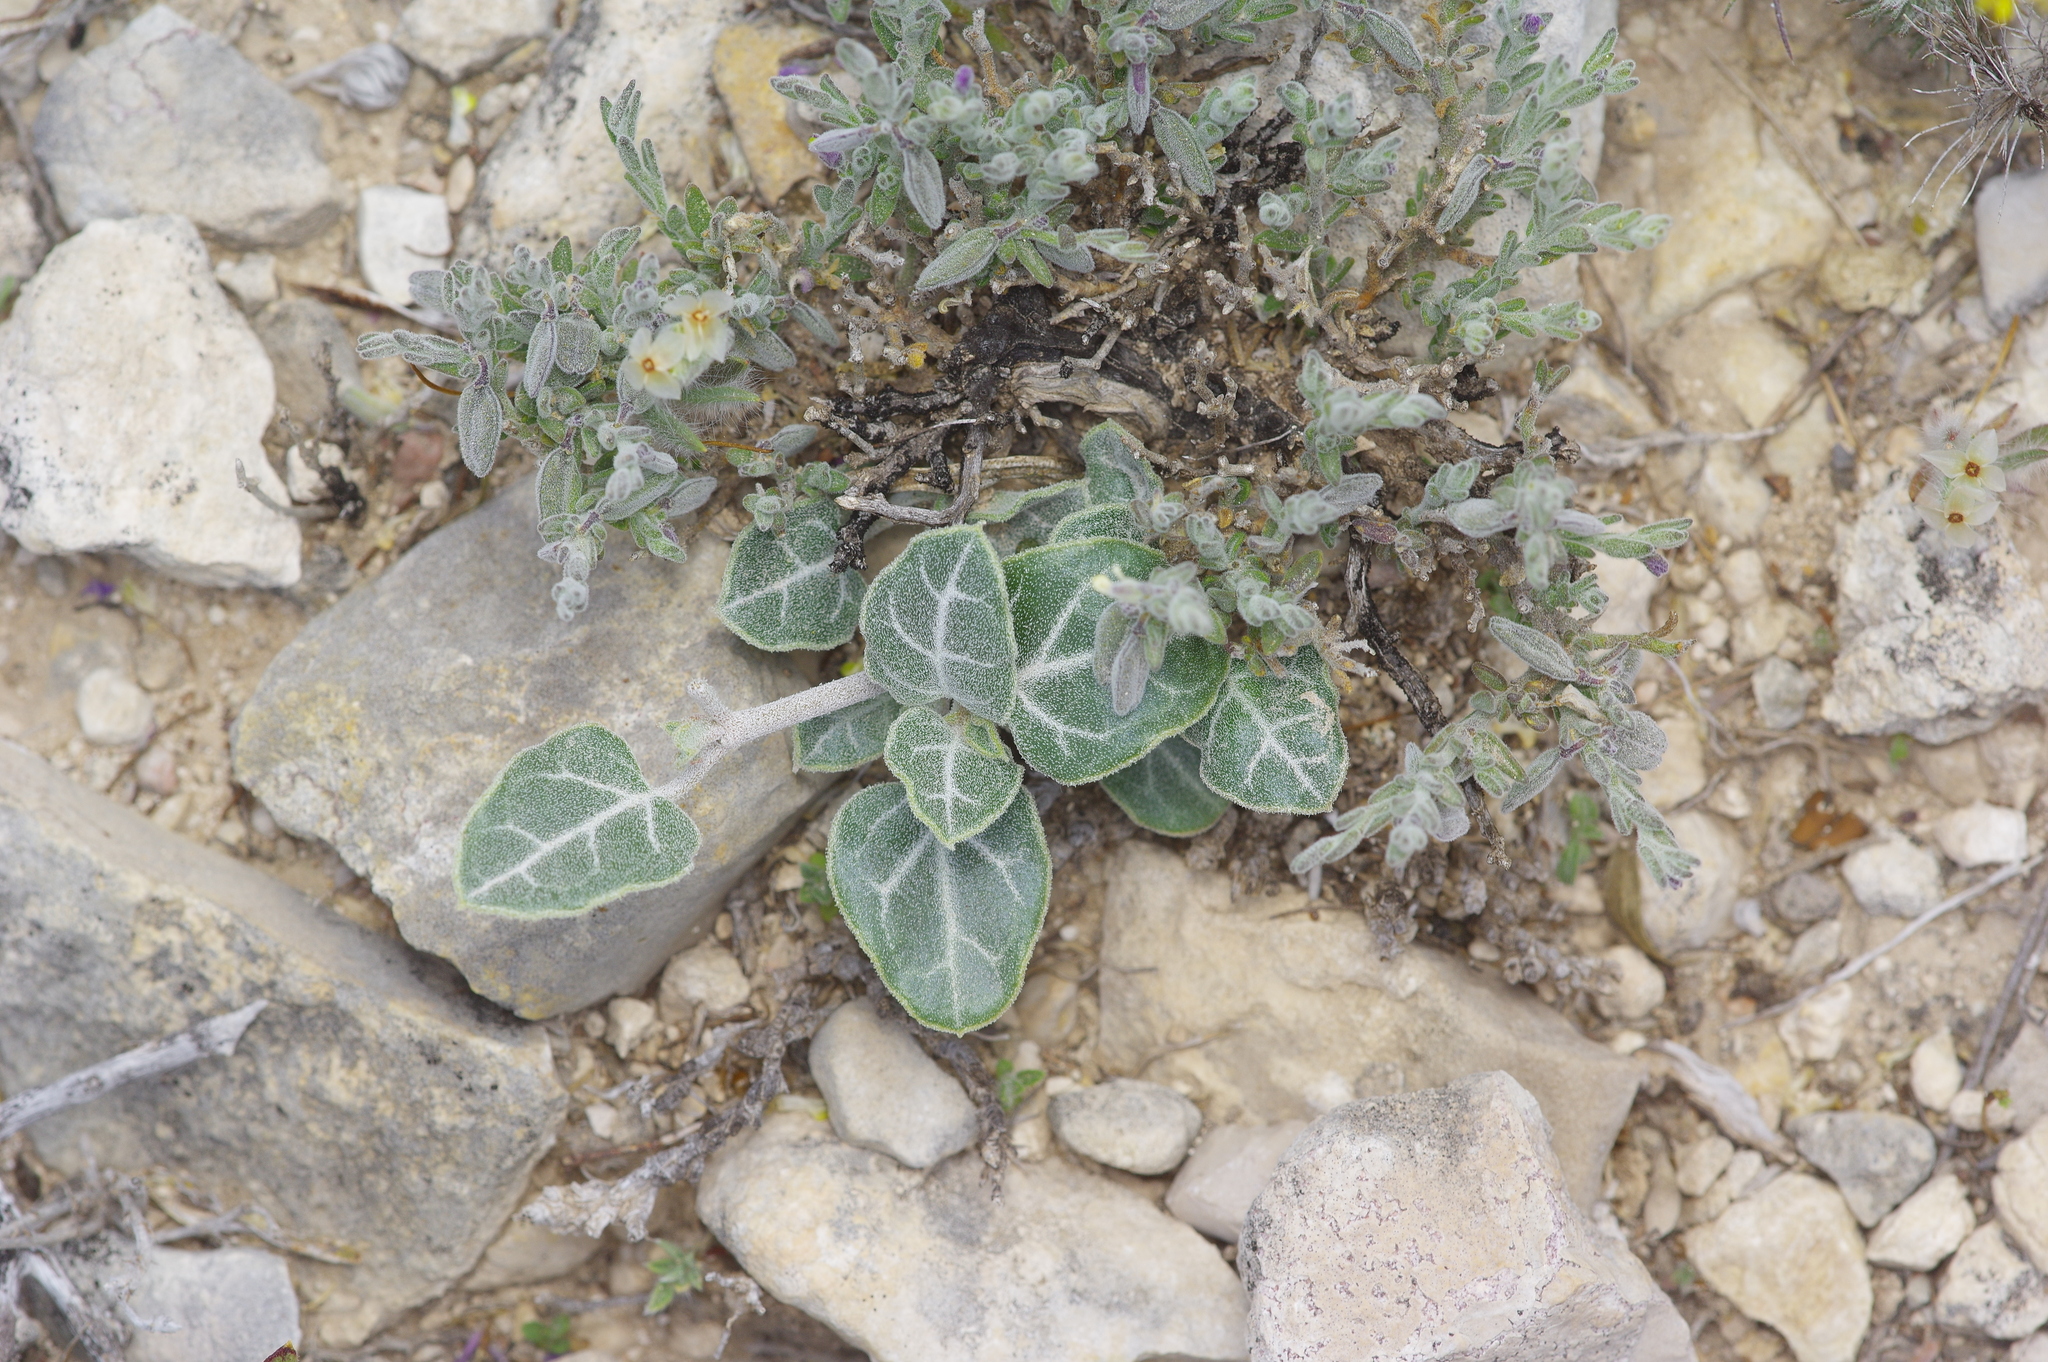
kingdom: Plantae
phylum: Tracheophyta
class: Magnoliopsida
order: Caryophyllales
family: Nyctaginaceae
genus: Acleisanthes
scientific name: Acleisanthes crassifolia
